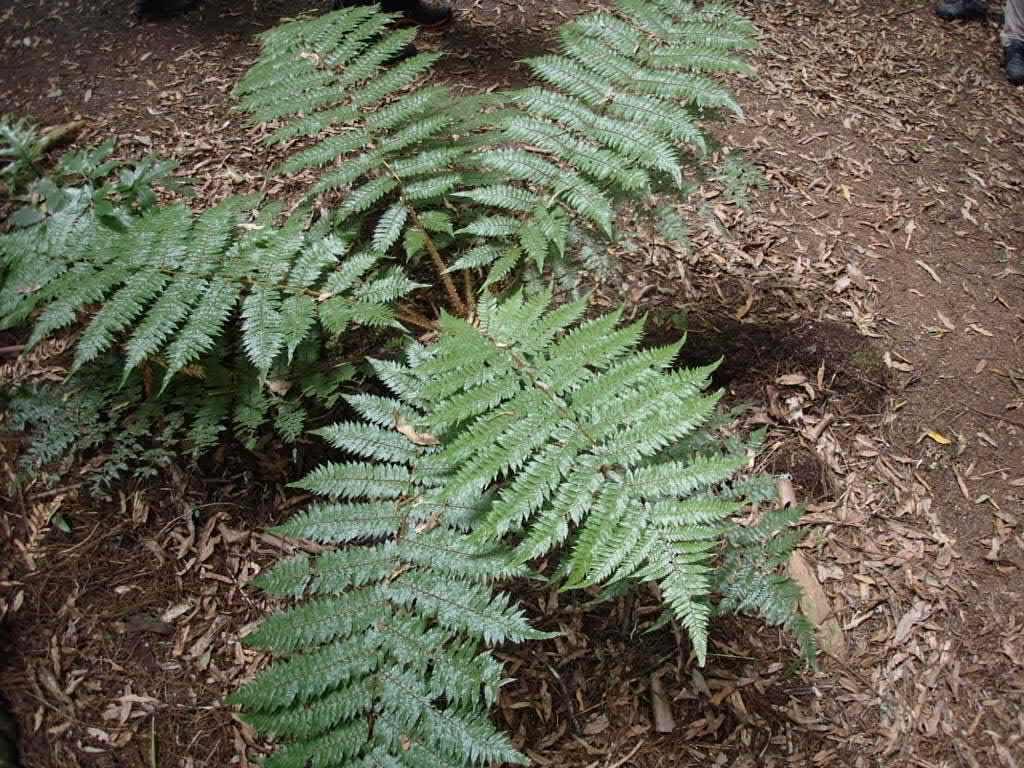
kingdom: Plantae
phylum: Tracheophyta
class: Polypodiopsida
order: Cyatheales
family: Cyatheaceae
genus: Alsophila
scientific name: Alsophila smithii
